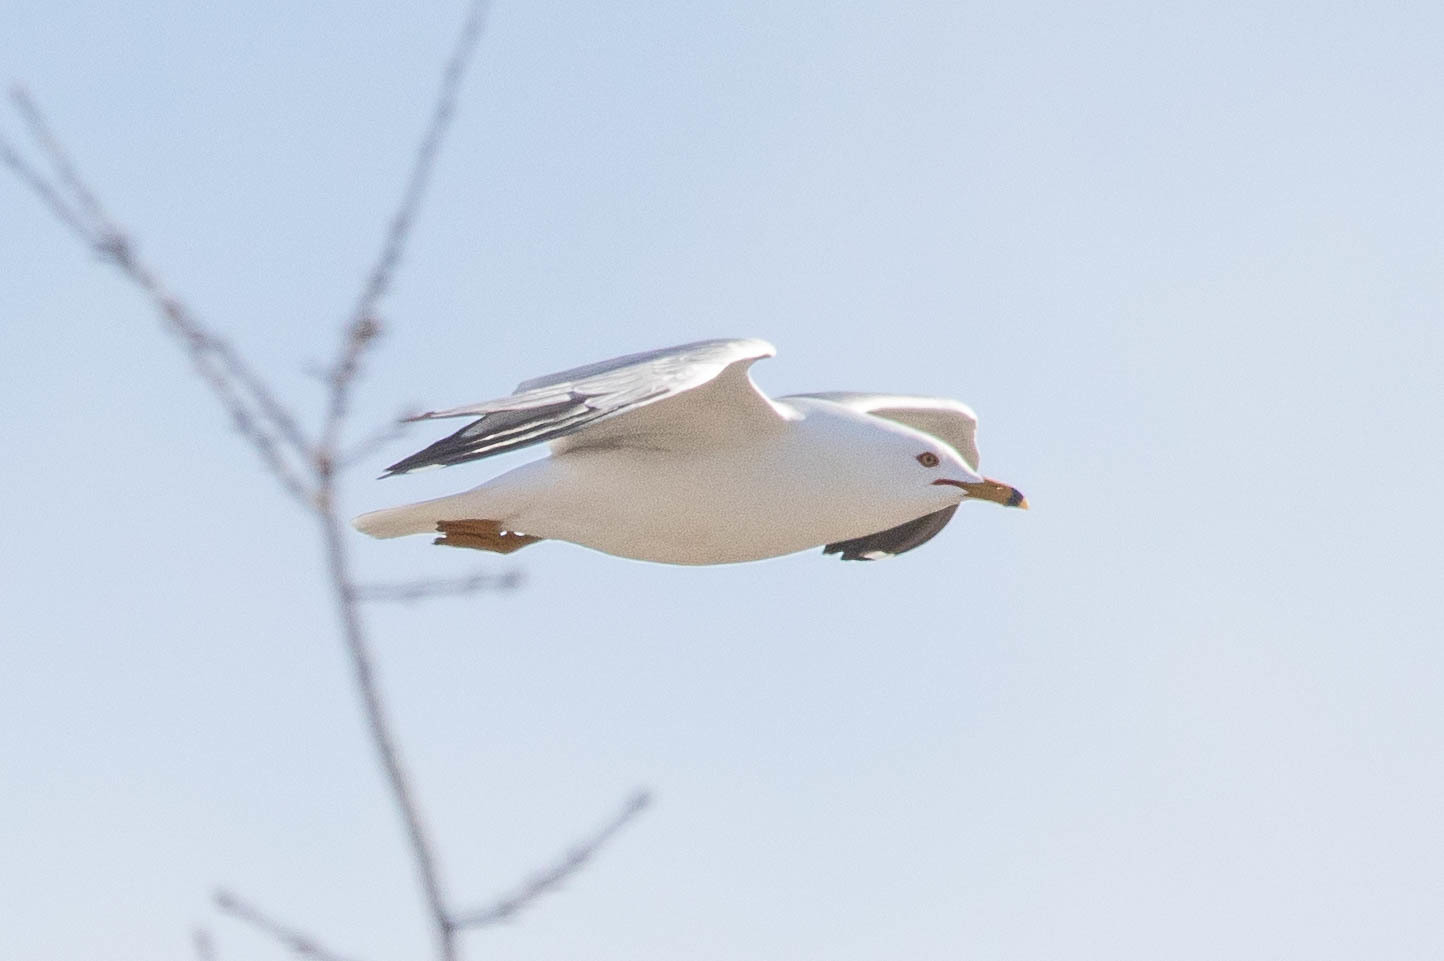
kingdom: Animalia
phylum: Chordata
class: Aves
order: Charadriiformes
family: Laridae
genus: Larus
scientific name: Larus delawarensis
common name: Ring-billed gull
